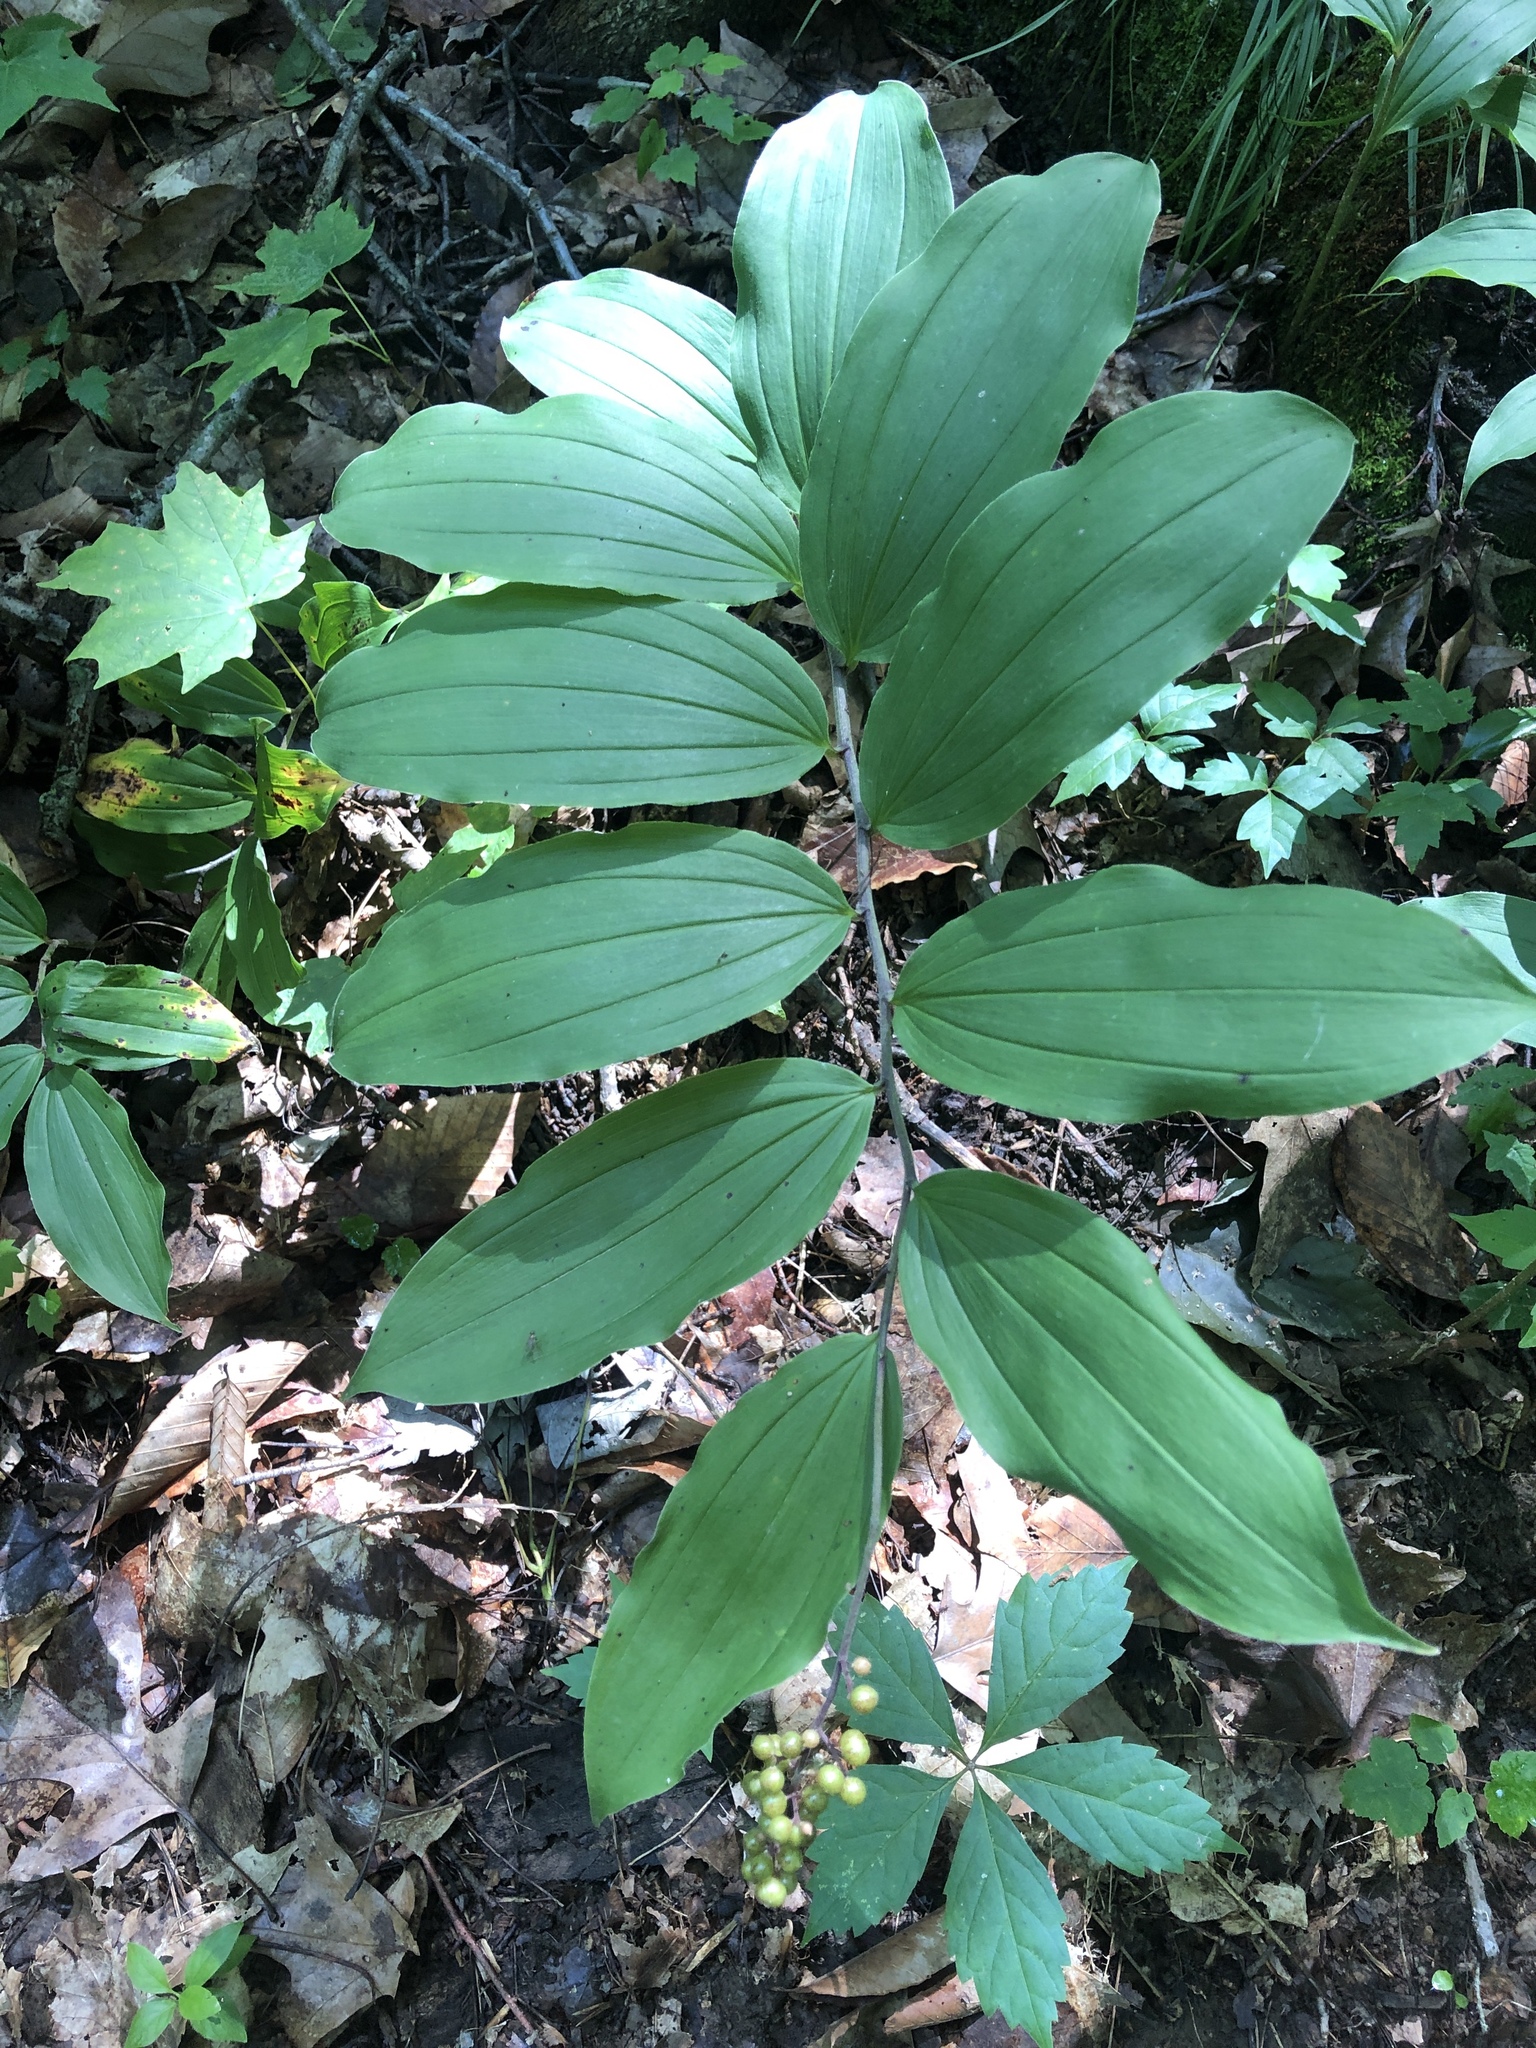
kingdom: Plantae
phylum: Tracheophyta
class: Liliopsida
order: Asparagales
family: Asparagaceae
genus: Maianthemum
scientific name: Maianthemum racemosum
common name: False spikenard
